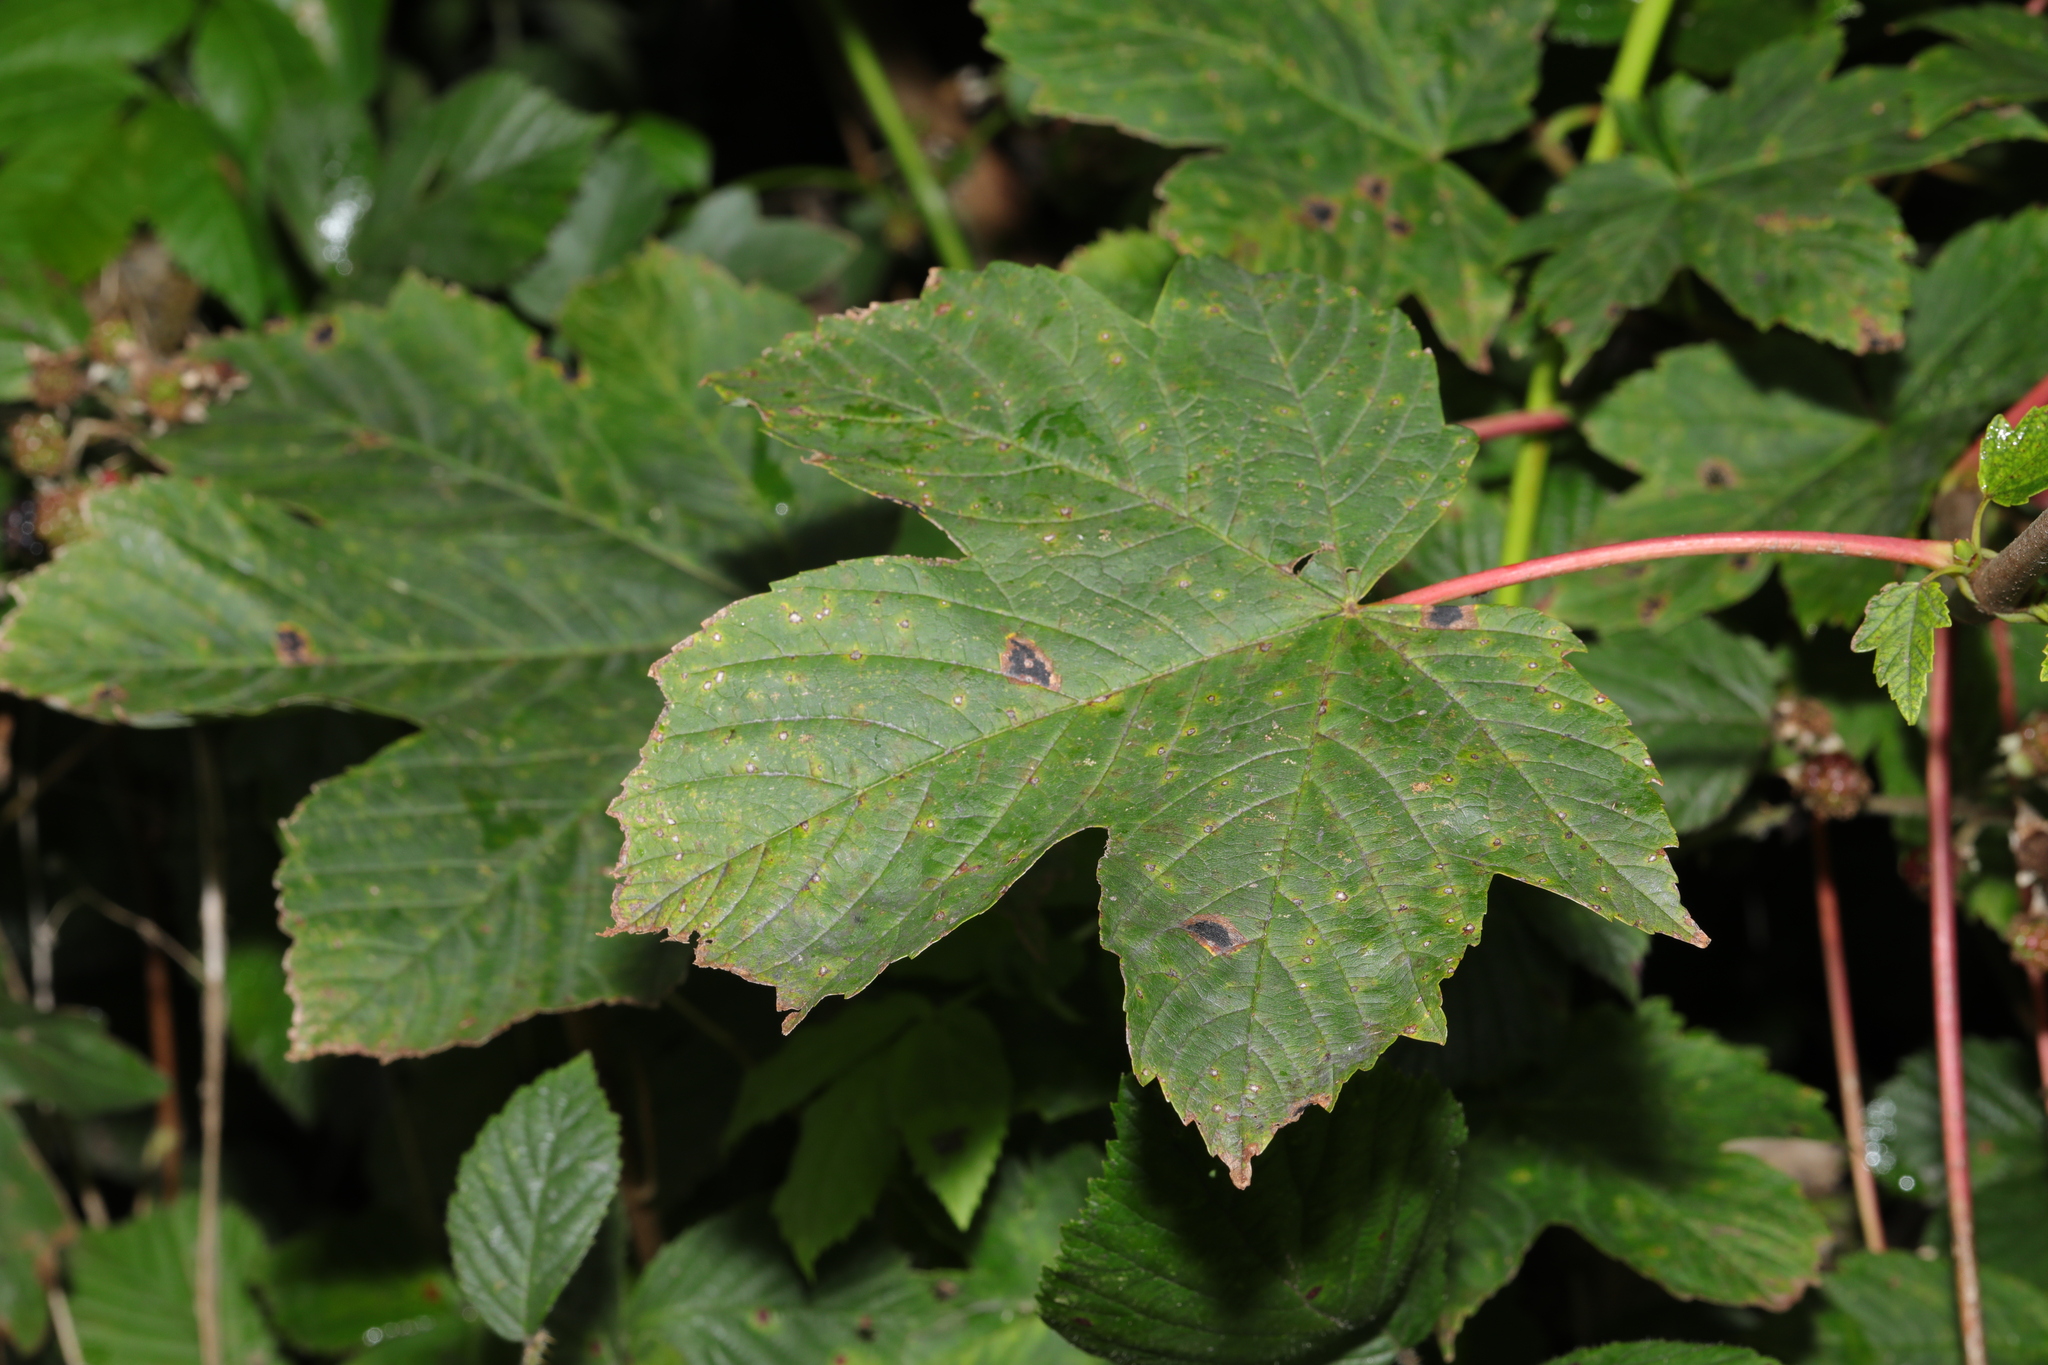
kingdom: Plantae
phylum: Tracheophyta
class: Magnoliopsida
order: Sapindales
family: Sapindaceae
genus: Acer
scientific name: Acer pseudoplatanus
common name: Sycamore
